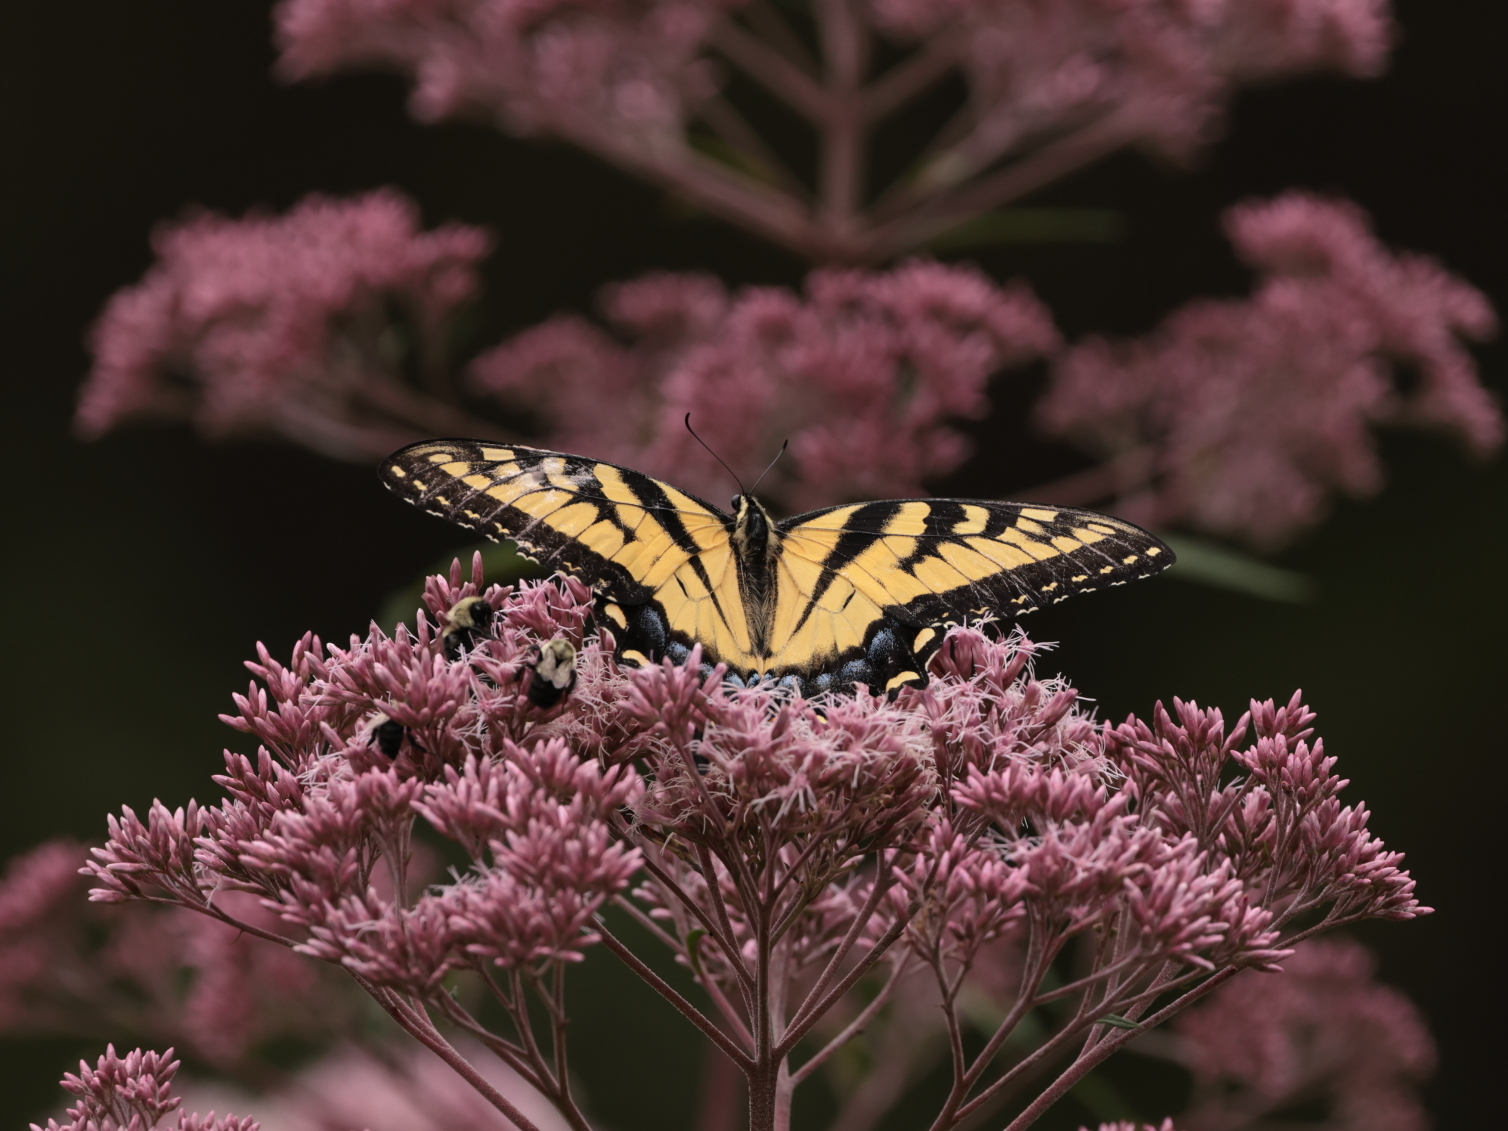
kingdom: Animalia
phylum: Arthropoda
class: Insecta
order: Lepidoptera
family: Papilionidae
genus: Papilio
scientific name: Papilio glaucus
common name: Tiger swallowtail
